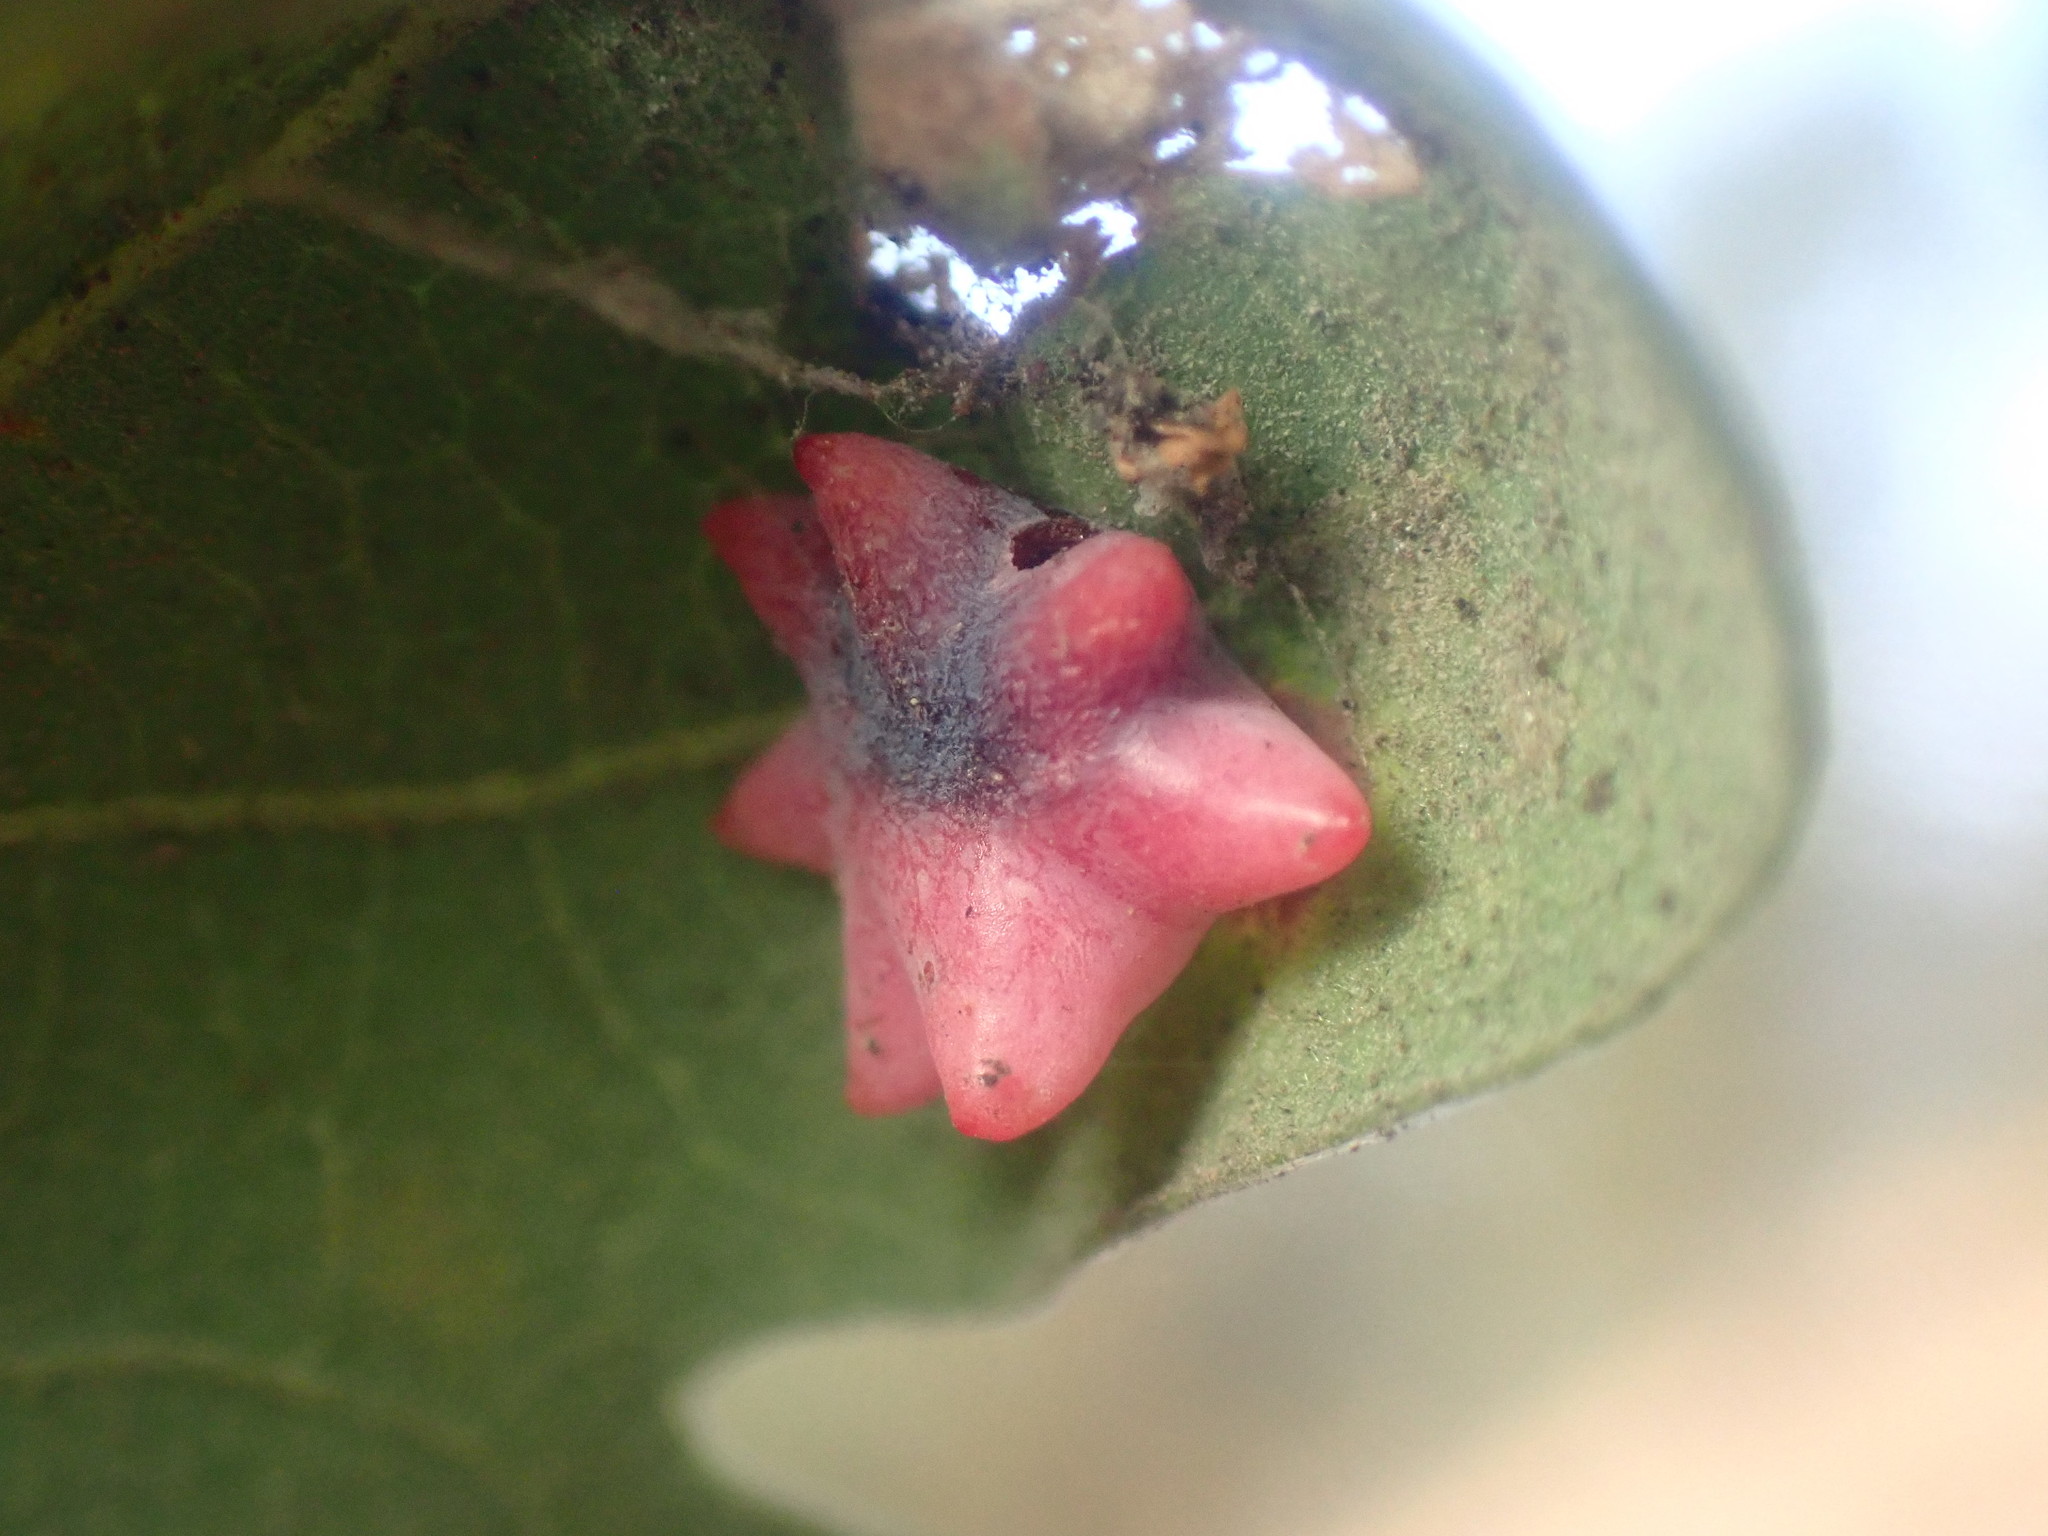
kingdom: Animalia
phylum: Arthropoda
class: Insecta
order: Hymenoptera
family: Cynipidae
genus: Cynips
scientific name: Cynips douglasi
